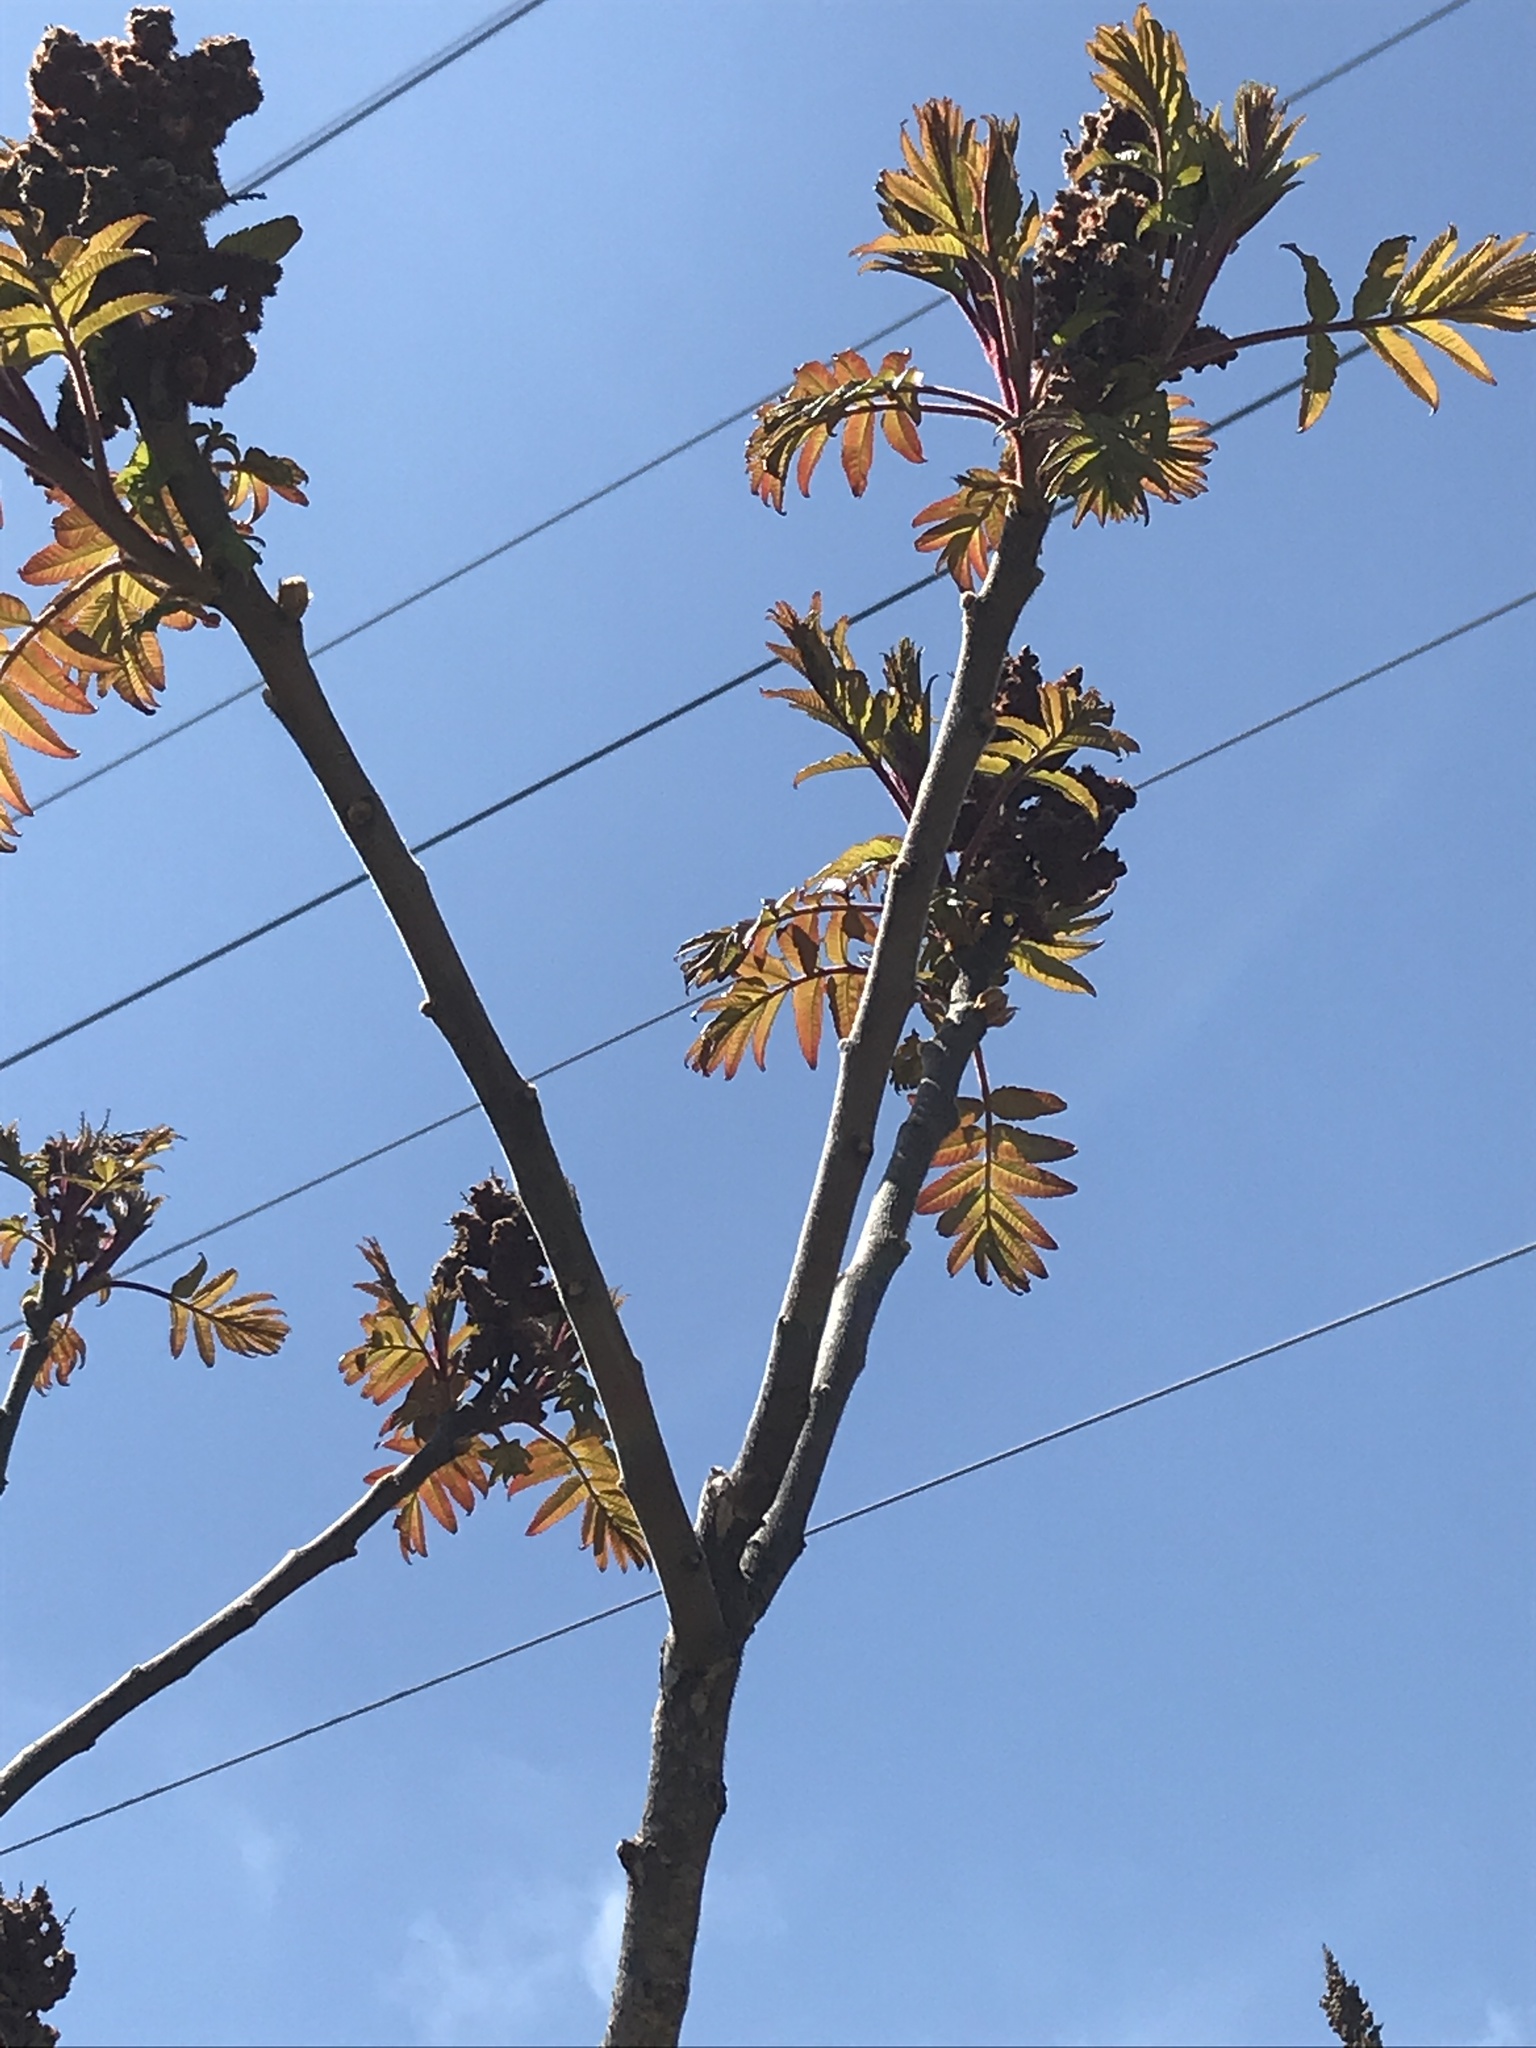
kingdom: Plantae
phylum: Tracheophyta
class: Magnoliopsida
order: Sapindales
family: Anacardiaceae
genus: Rhus
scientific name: Rhus typhina
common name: Staghorn sumac
